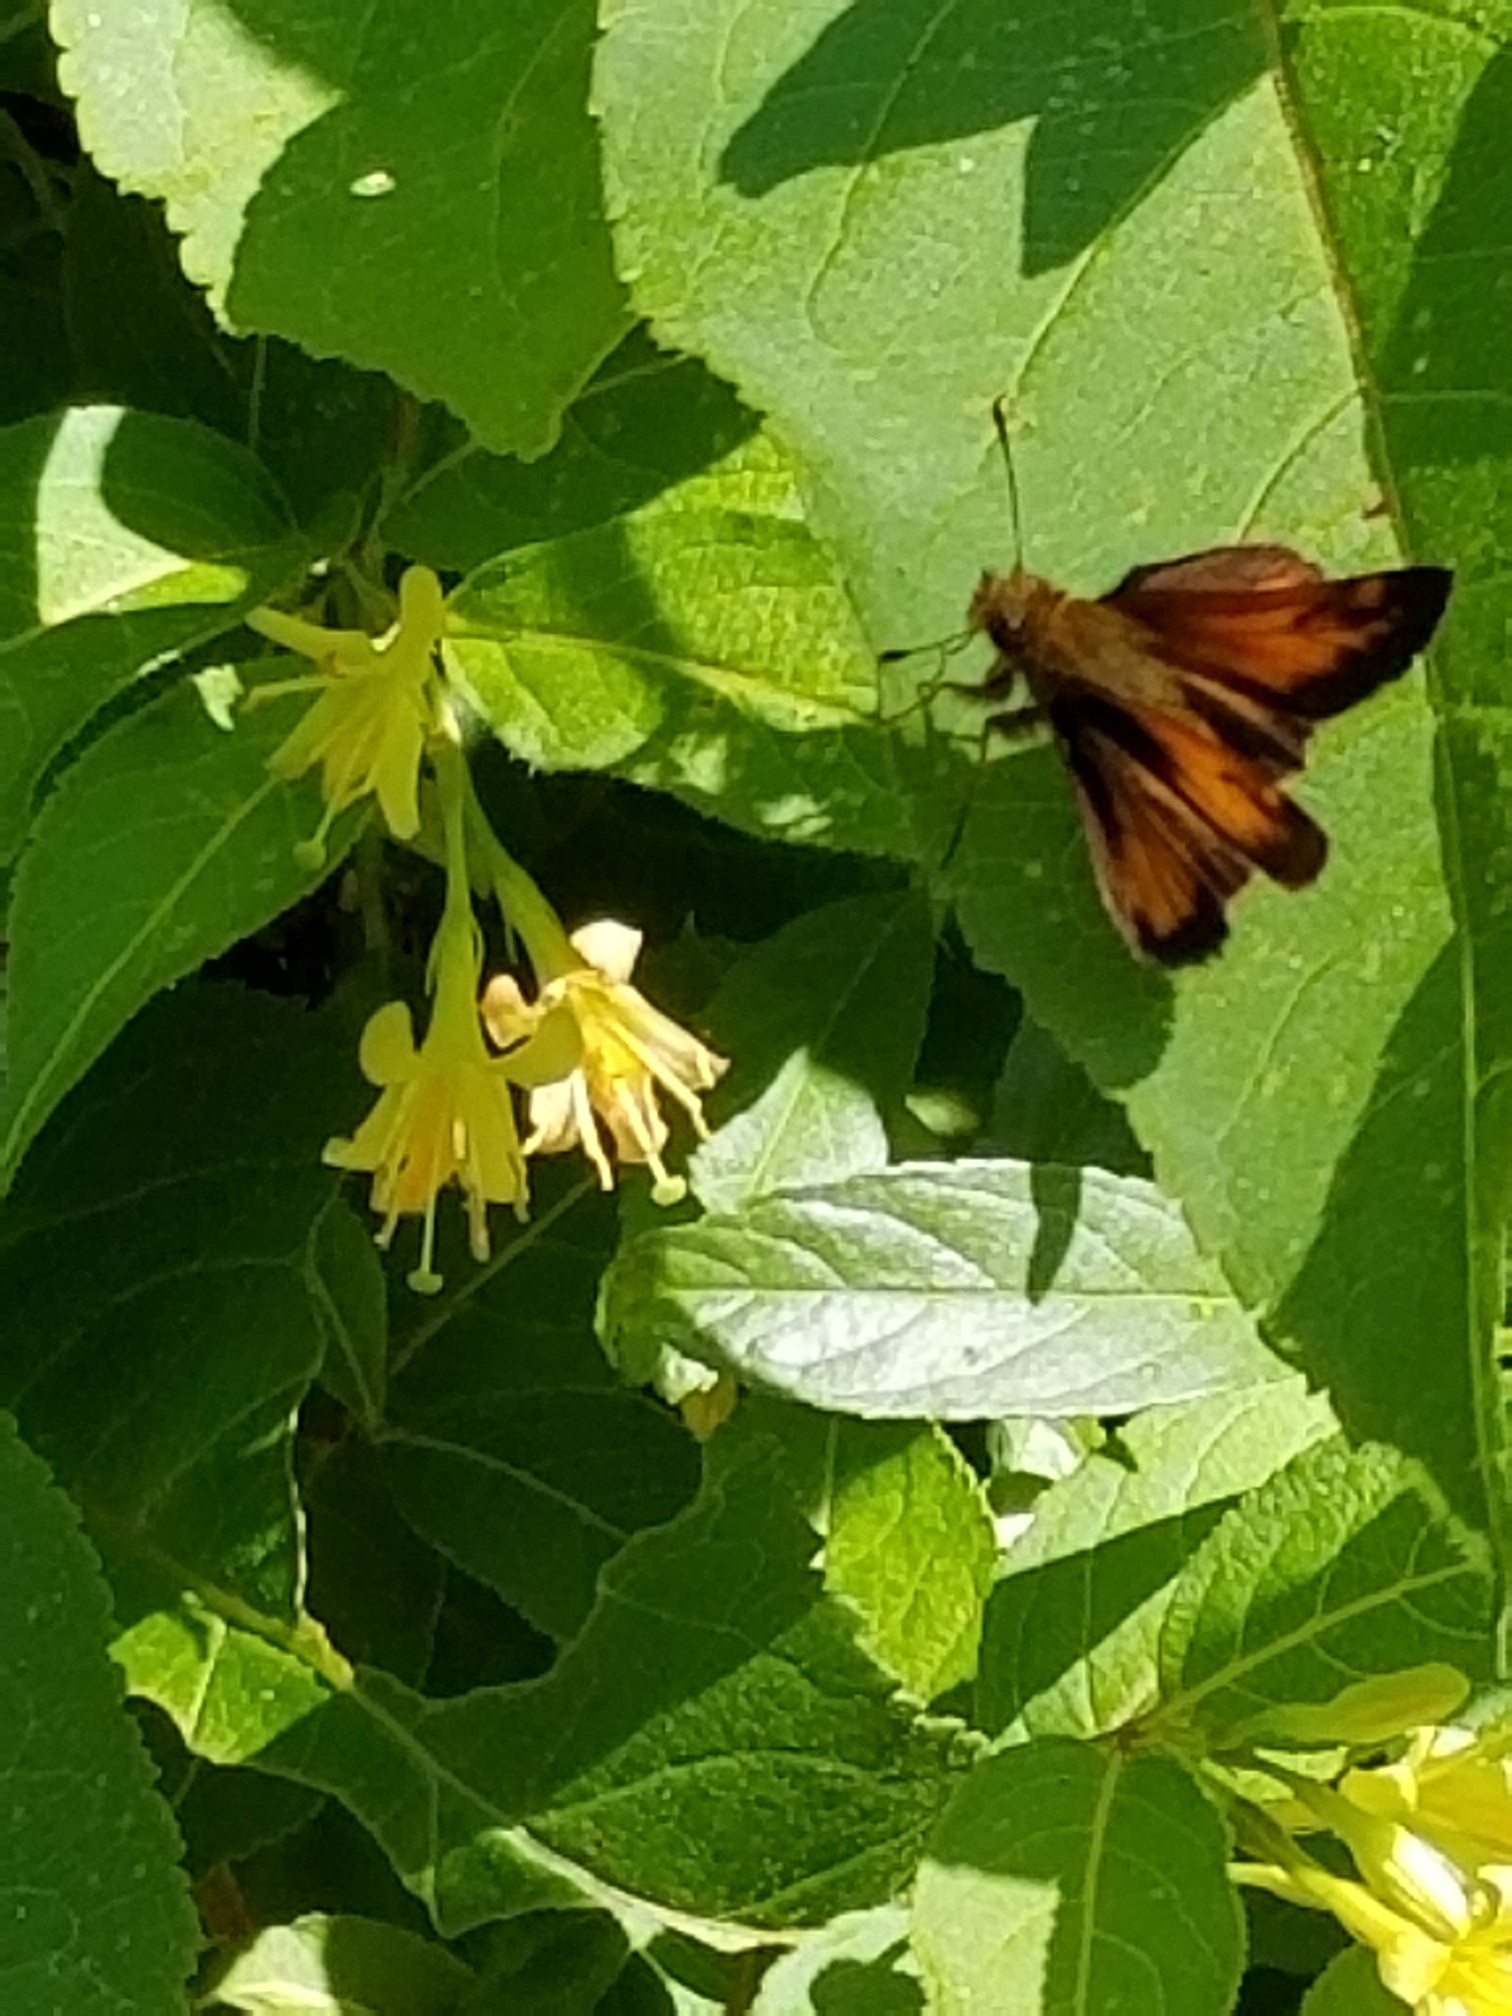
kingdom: Animalia
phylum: Arthropoda
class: Insecta
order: Lepidoptera
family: Hesperiidae
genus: Lon
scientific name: Lon hobomok
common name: Hobomok skipper
